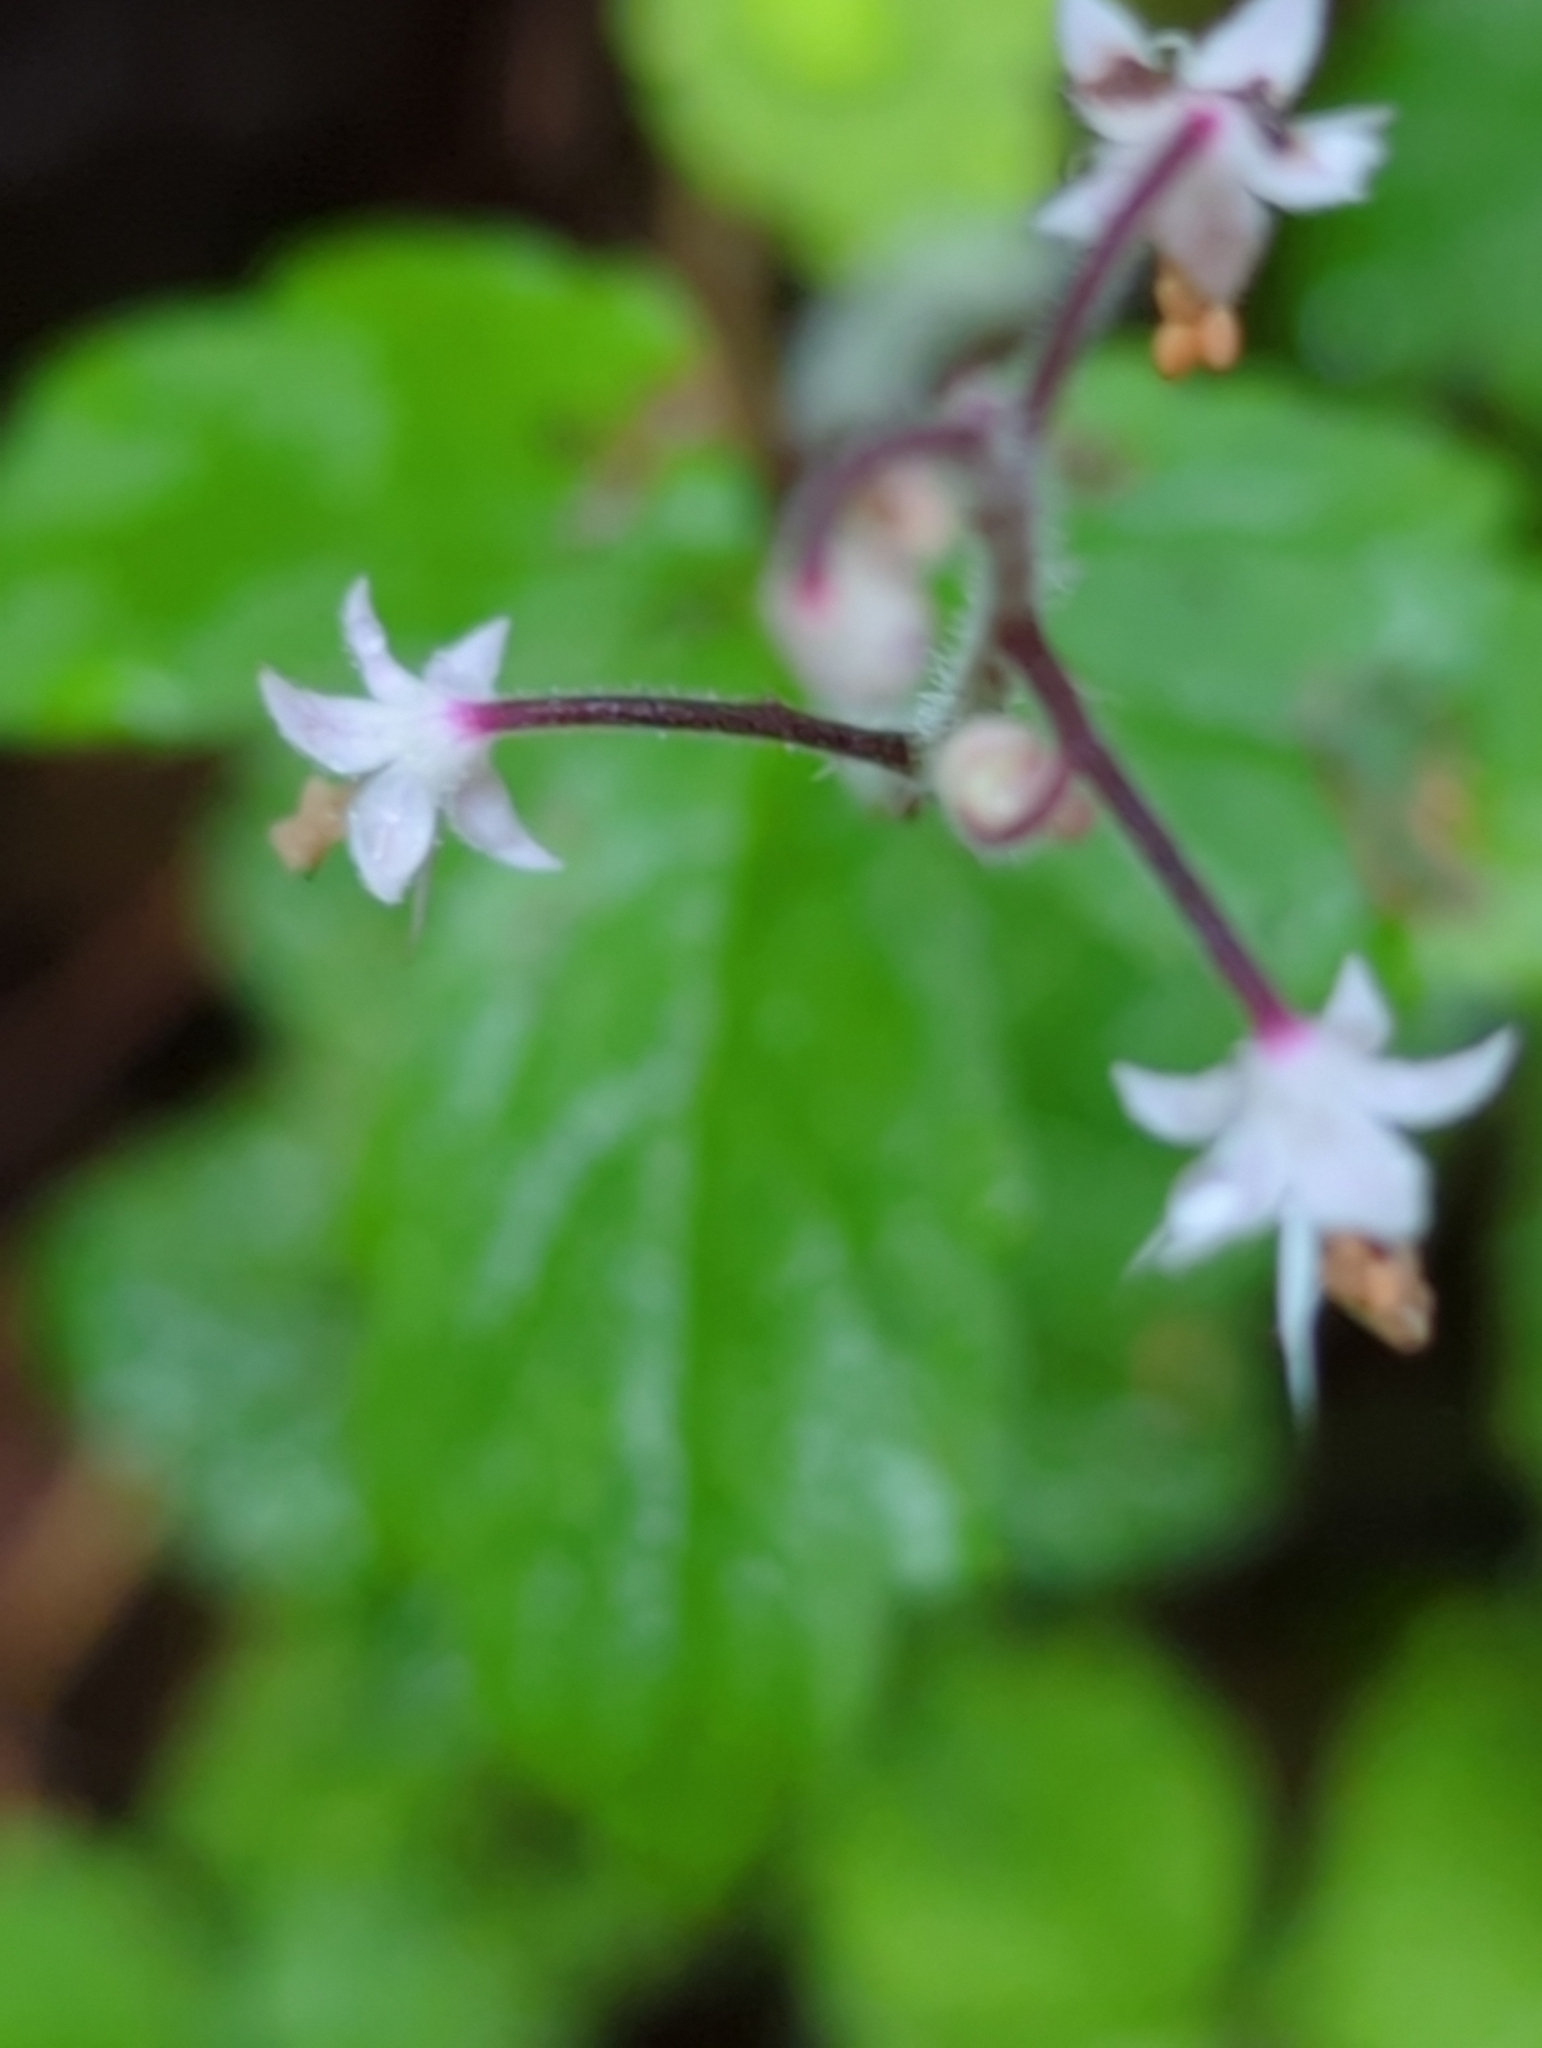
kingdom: Plantae
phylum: Tracheophyta
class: Magnoliopsida
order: Saxifragales
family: Saxifragaceae
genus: Tiarella
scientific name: Tiarella trifoliata
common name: Sugar-scoop
